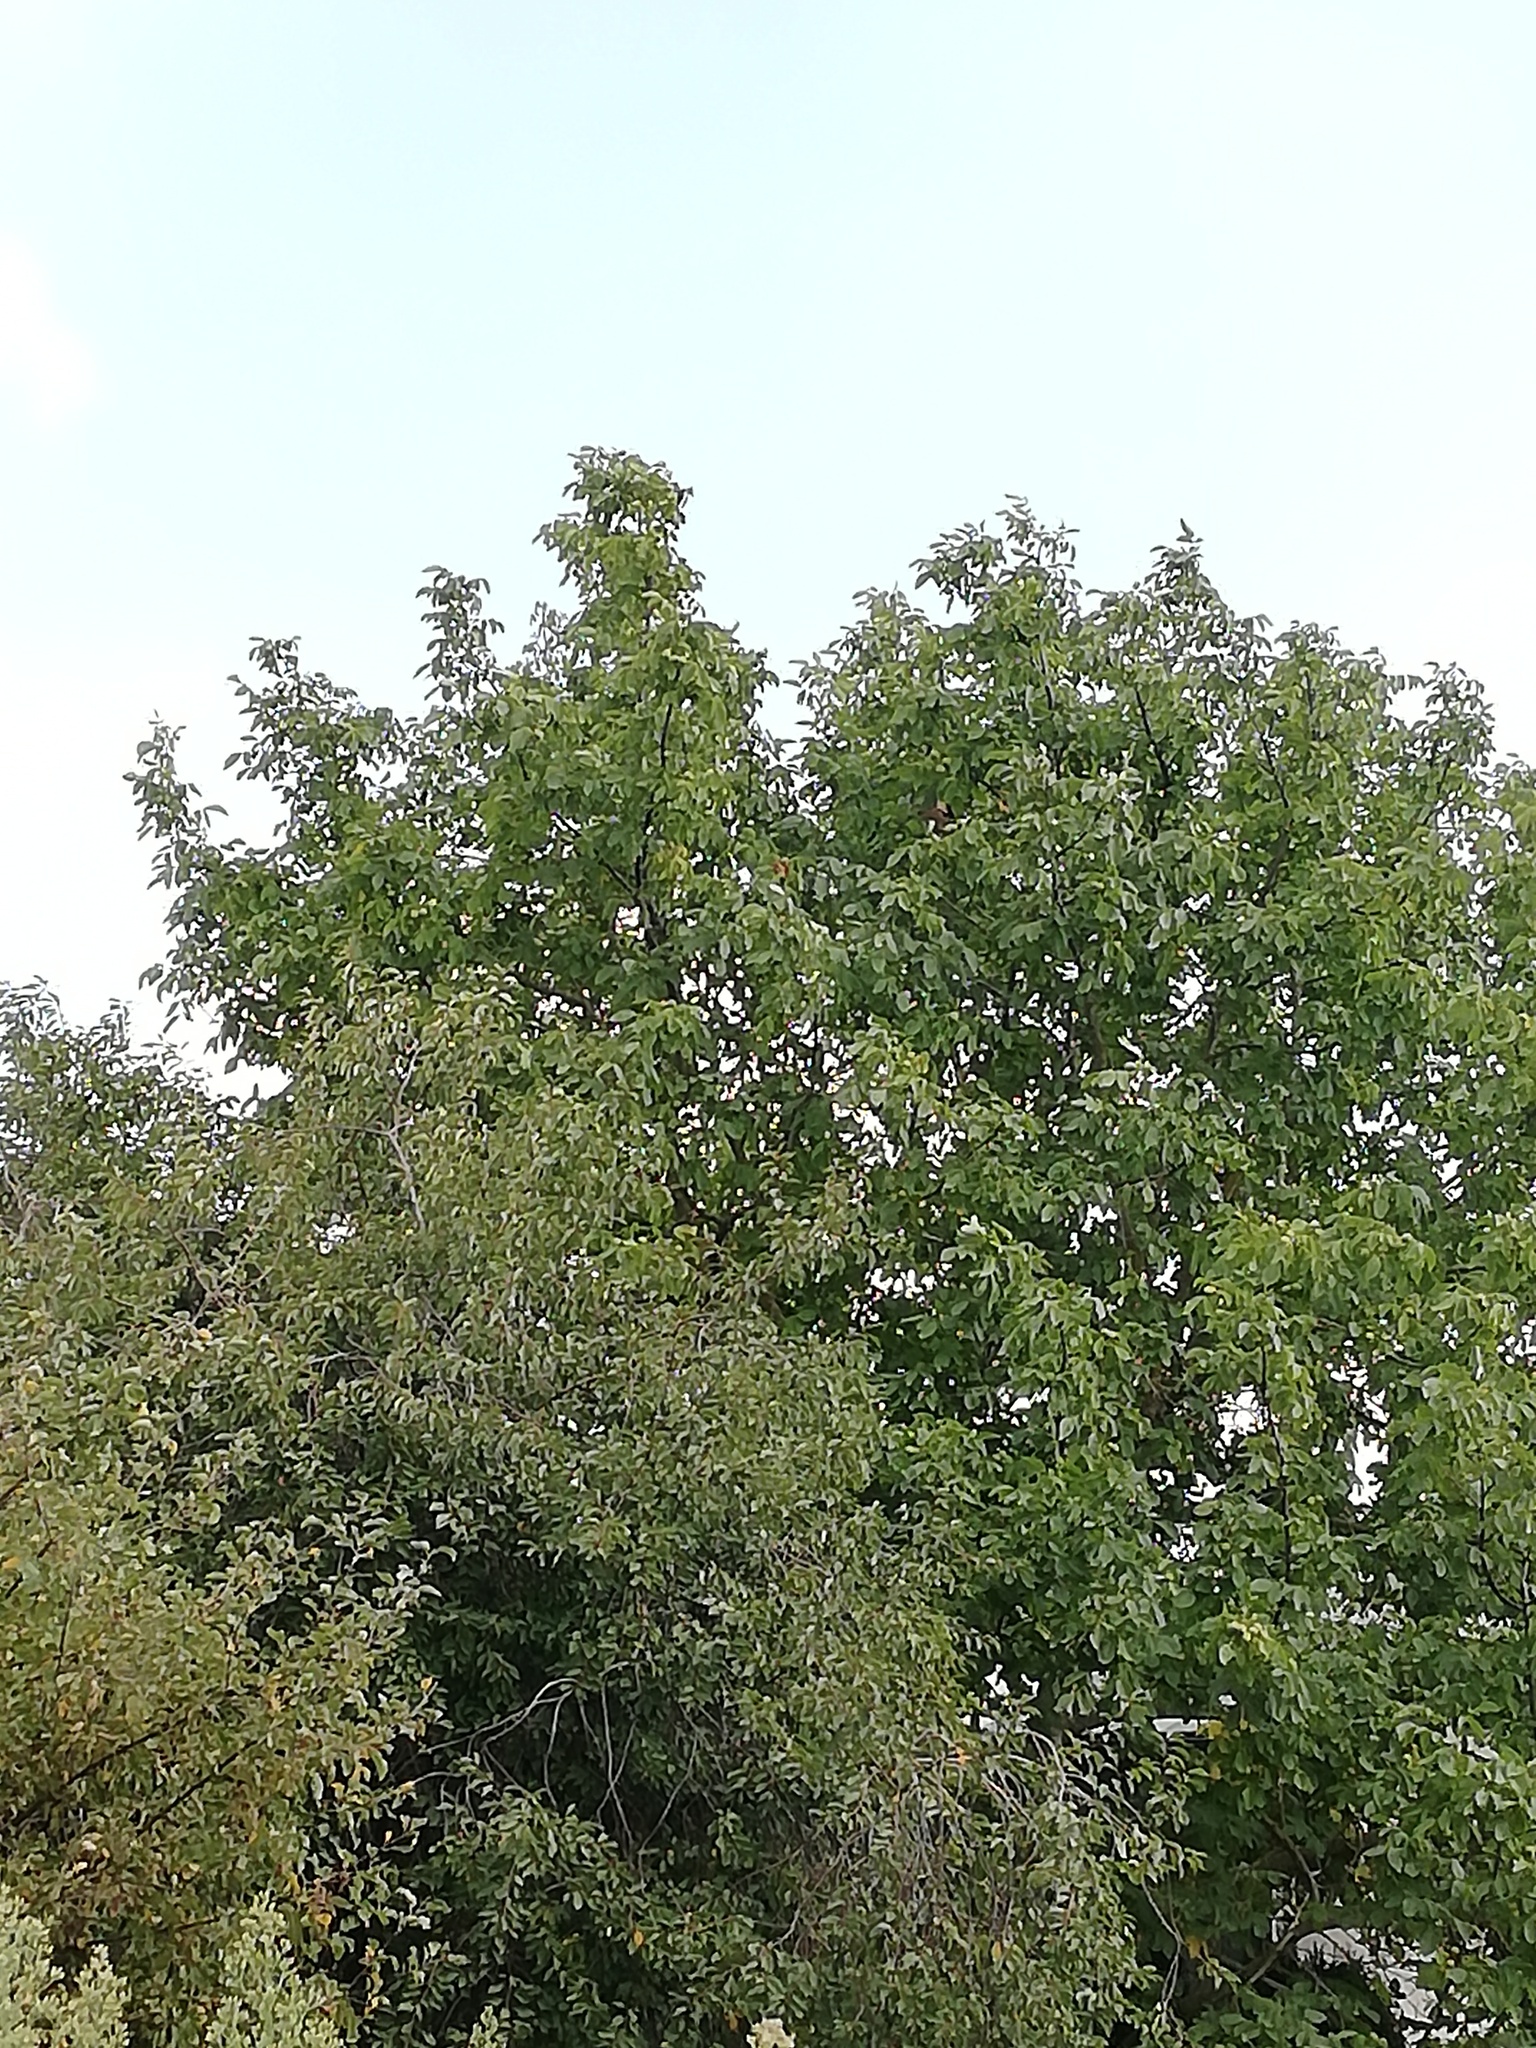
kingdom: Animalia
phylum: Arthropoda
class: Insecta
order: Hymenoptera
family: Vespidae
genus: Vespa
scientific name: Vespa velutina
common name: Asian hornet
